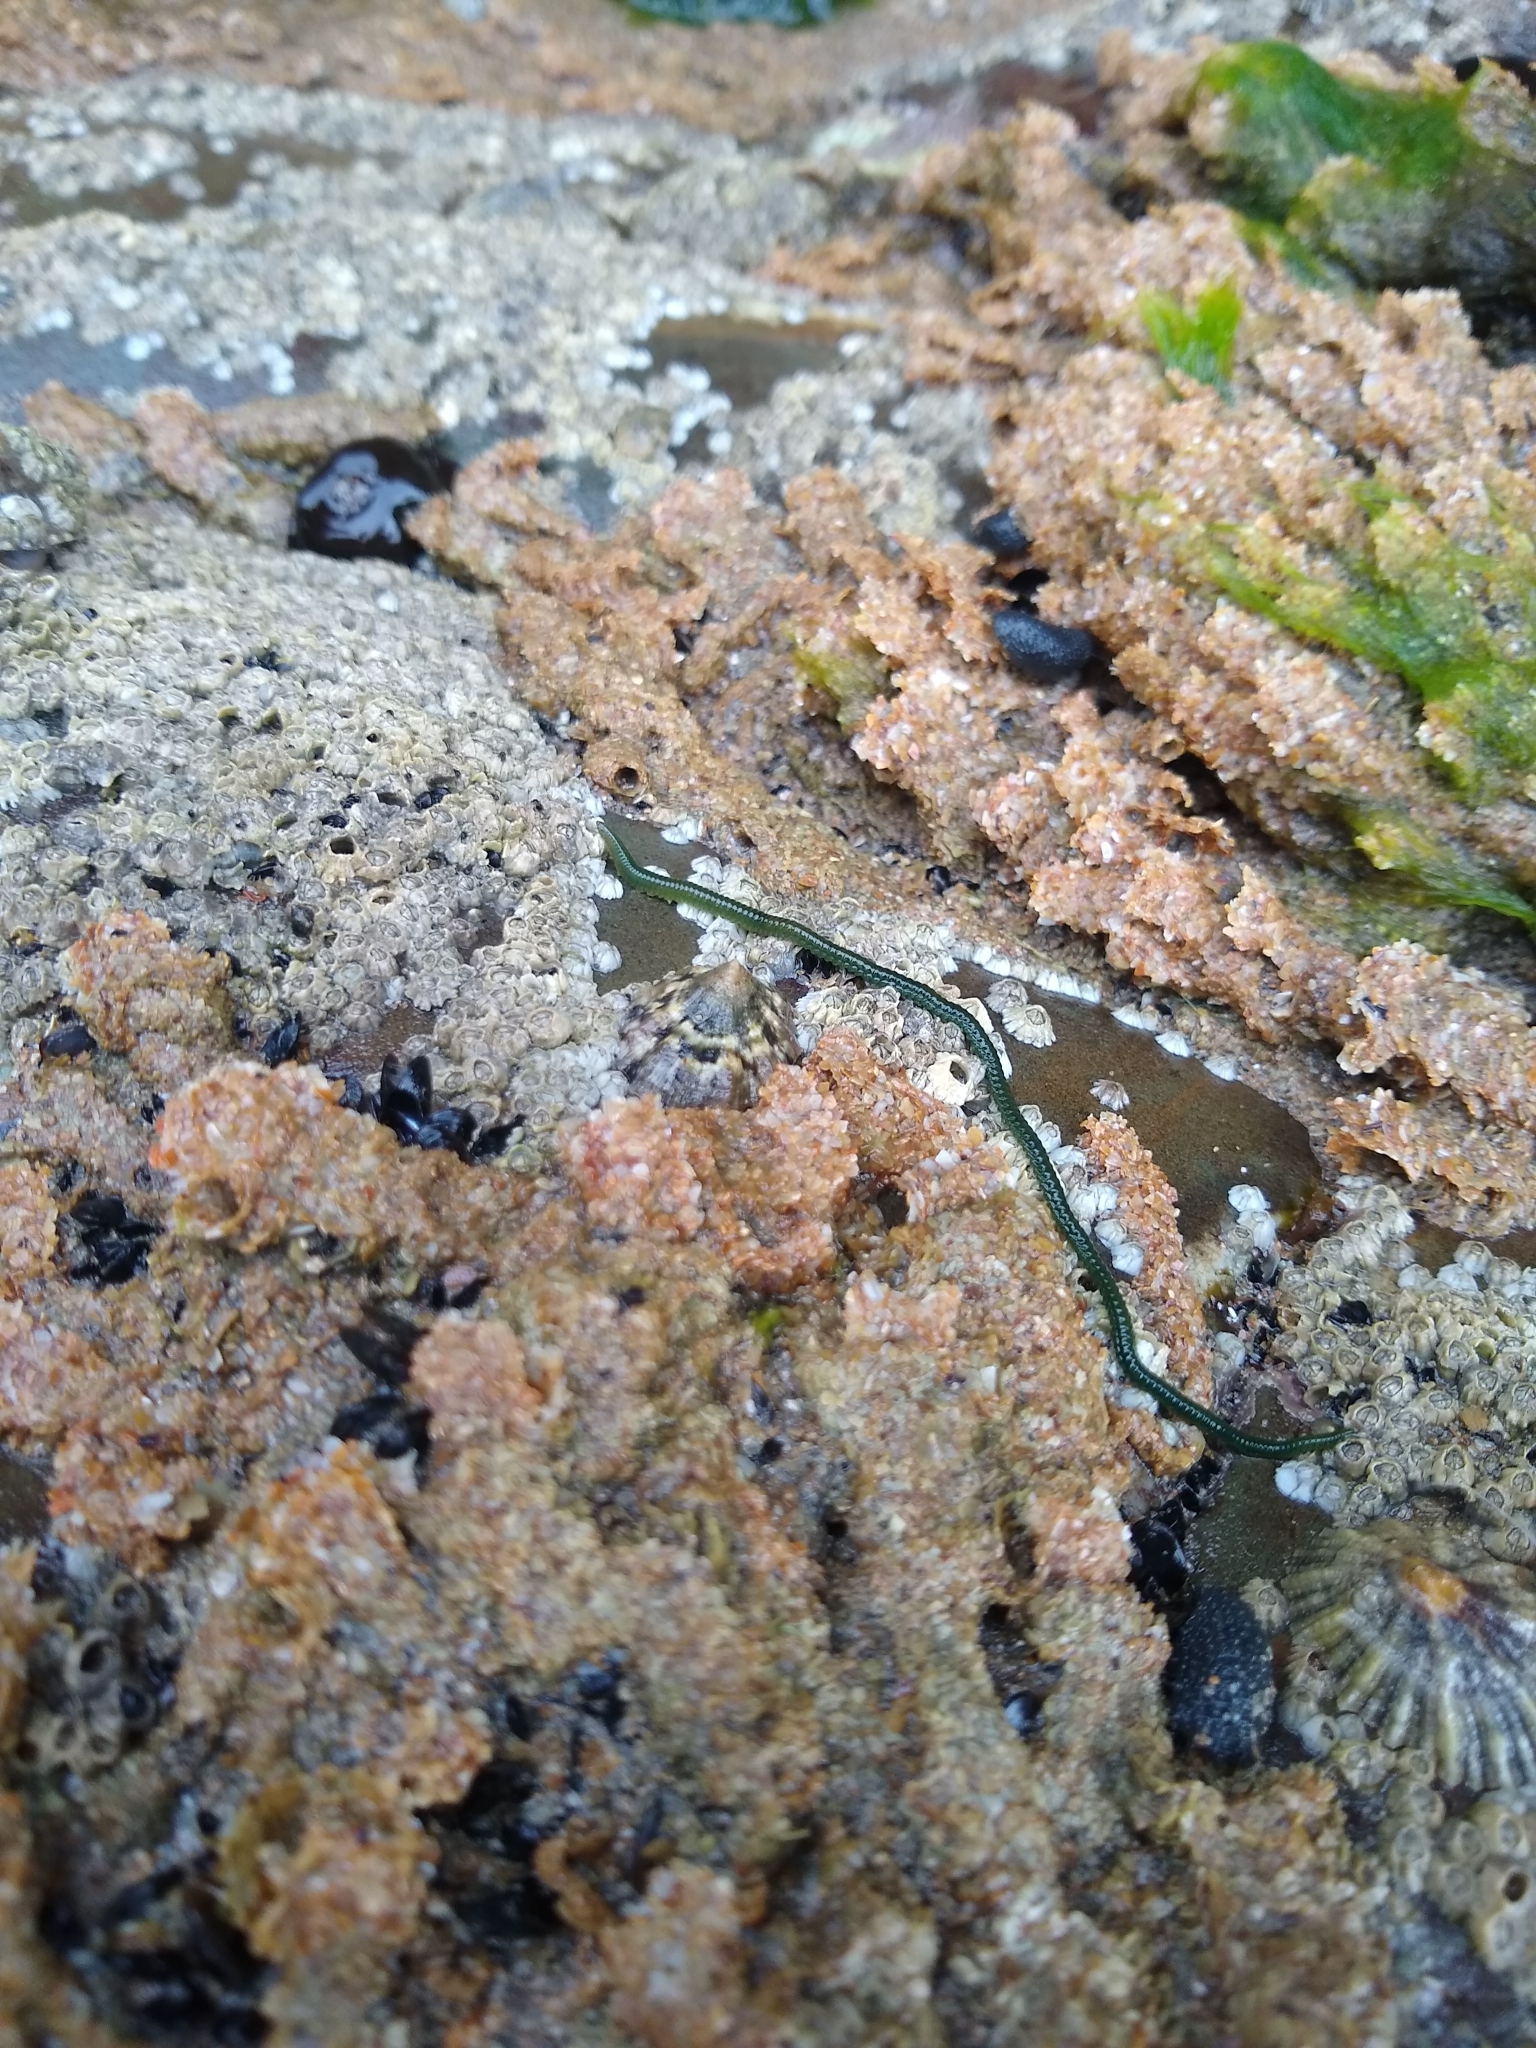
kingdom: Animalia
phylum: Annelida
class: Polychaeta
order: Phyllodocida
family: Phyllodocidae
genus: Eulalia
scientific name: Eulalia clavigera
